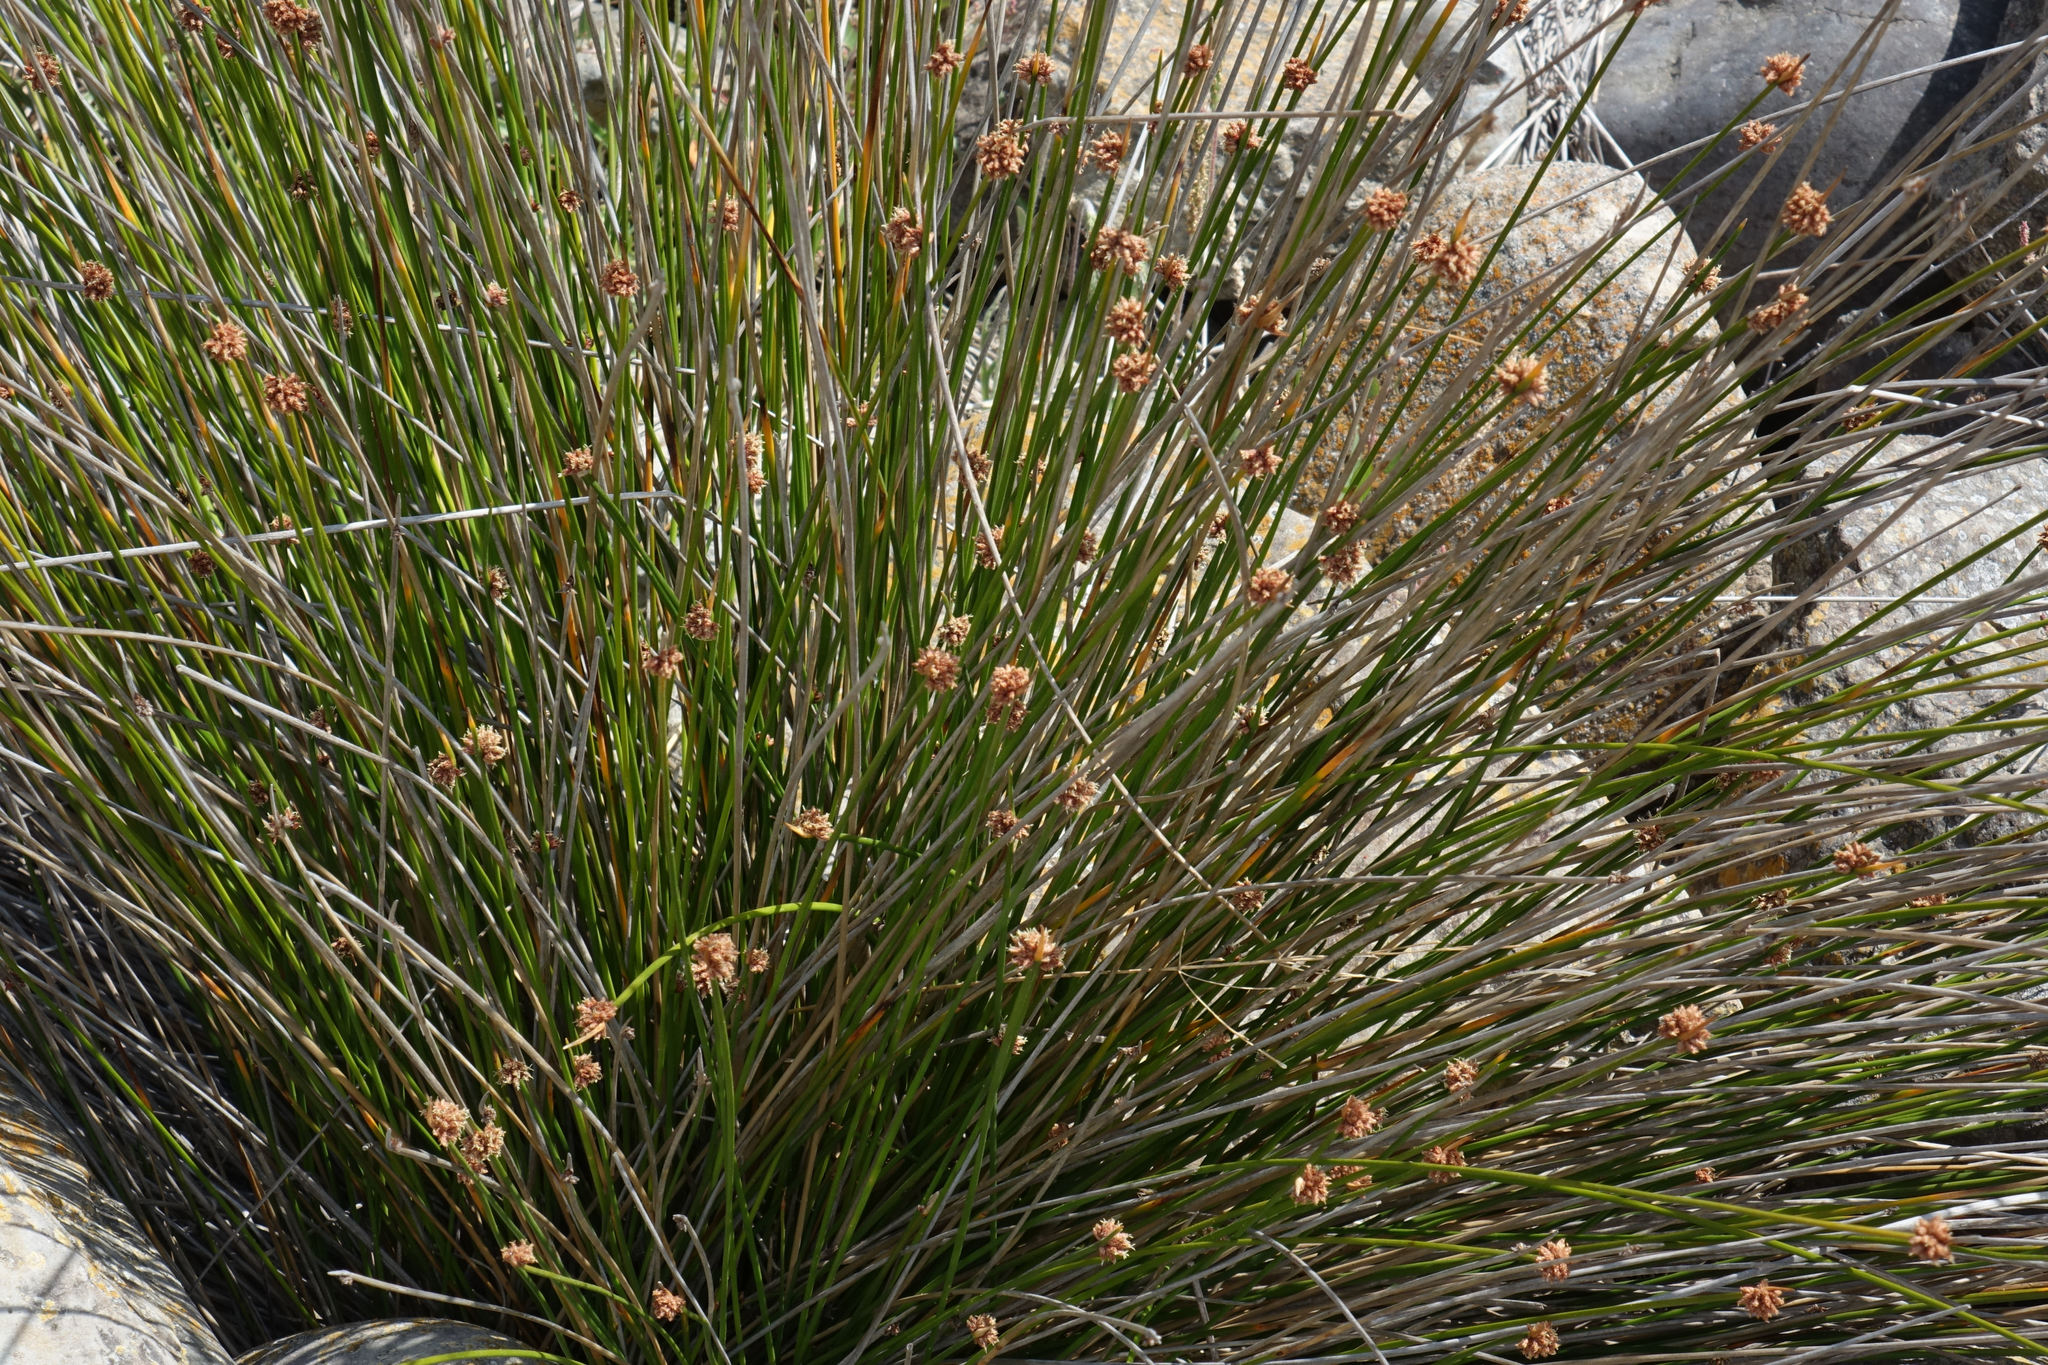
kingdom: Plantae
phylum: Tracheophyta
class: Liliopsida
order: Poales
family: Cyperaceae
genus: Ficinia
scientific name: Ficinia nodosa
